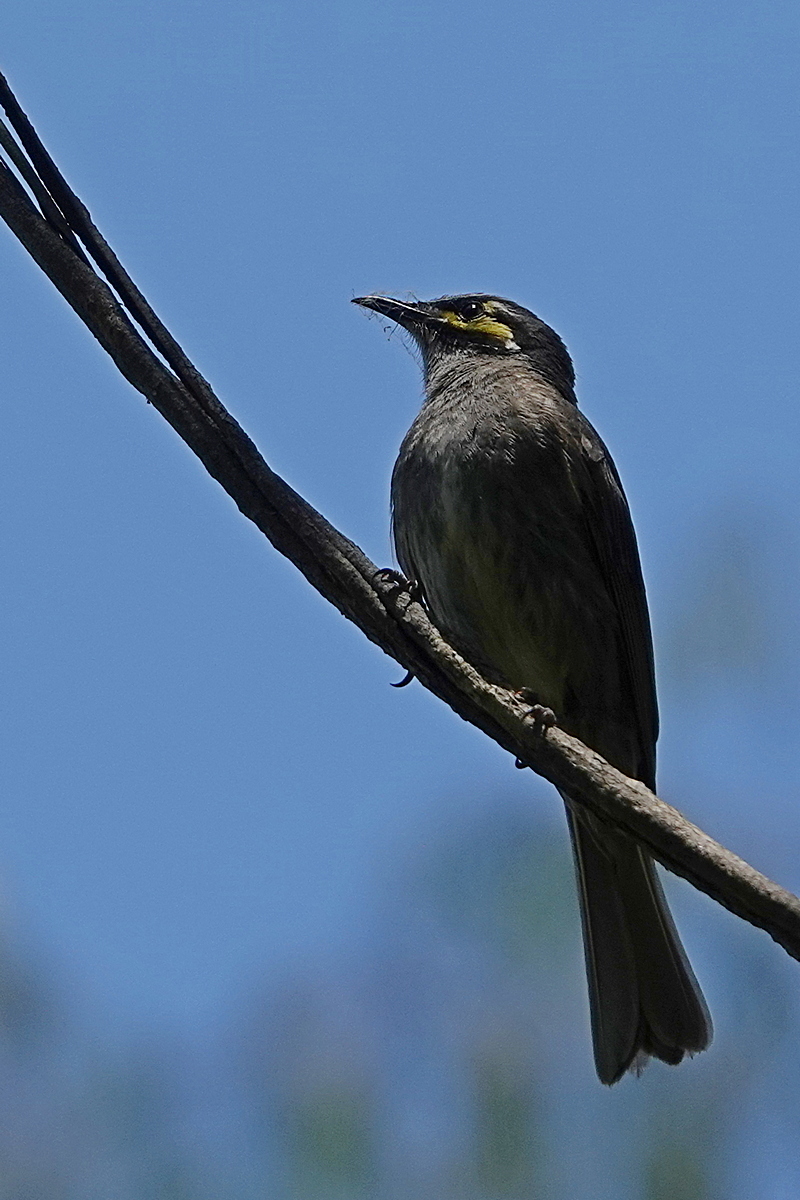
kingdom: Animalia
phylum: Chordata
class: Aves
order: Passeriformes
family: Meliphagidae
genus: Caligavis
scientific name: Caligavis chrysops
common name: Yellow-faced honeyeater
